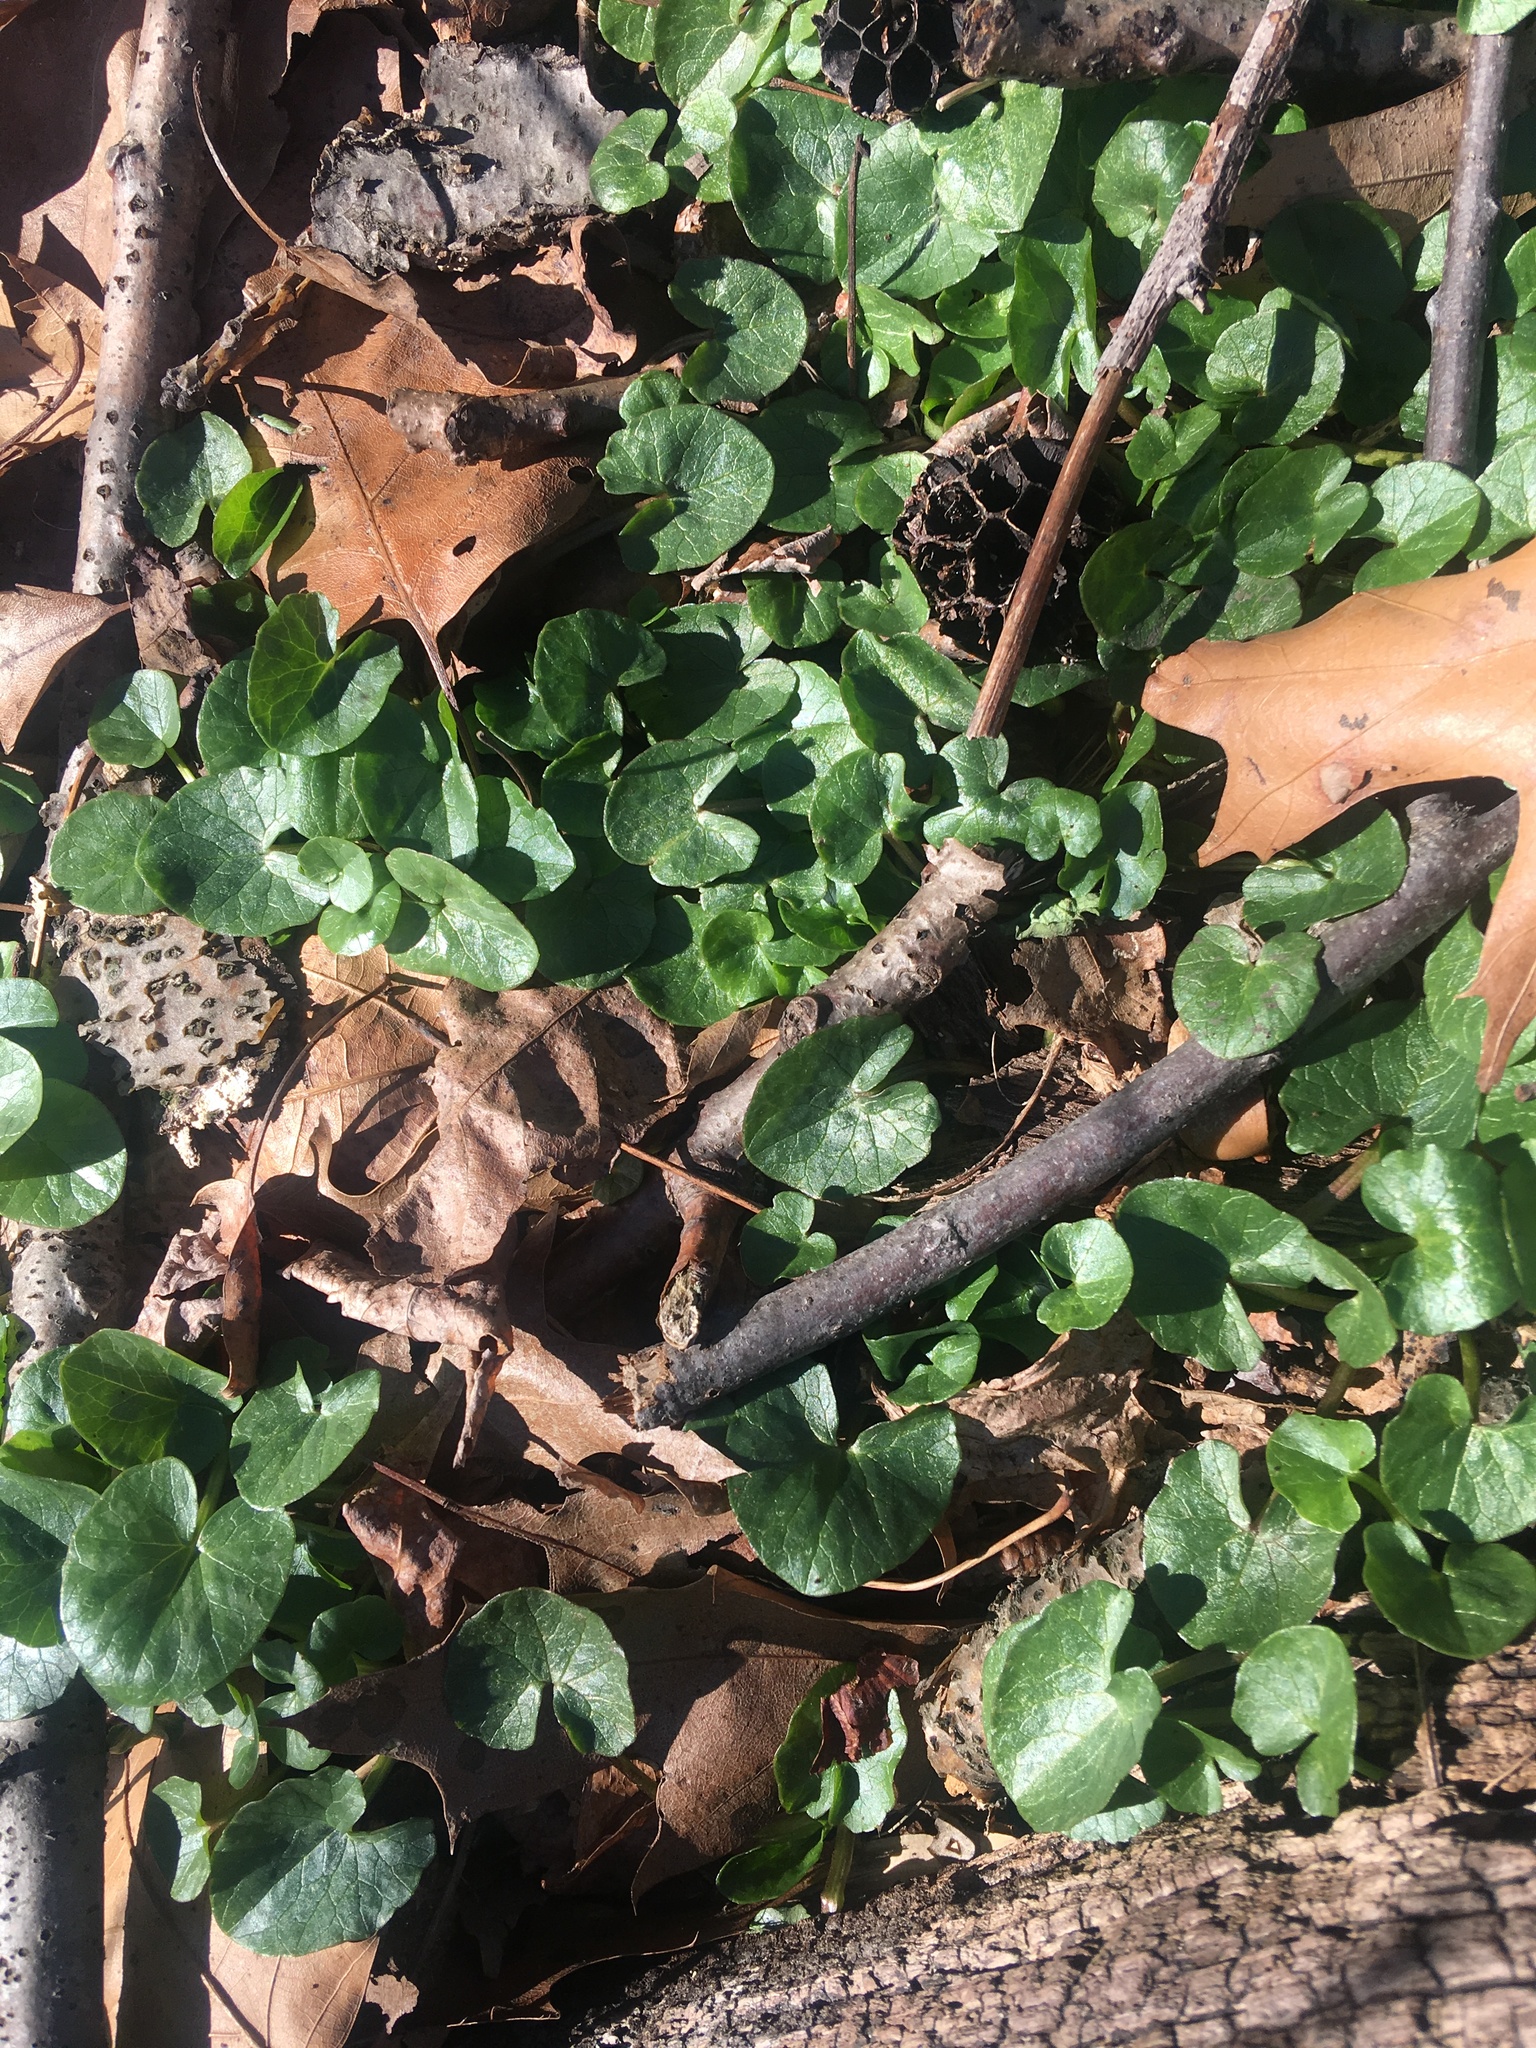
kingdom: Plantae
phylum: Tracheophyta
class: Magnoliopsida
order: Ranunculales
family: Ranunculaceae
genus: Ficaria
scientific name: Ficaria verna
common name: Lesser celandine
